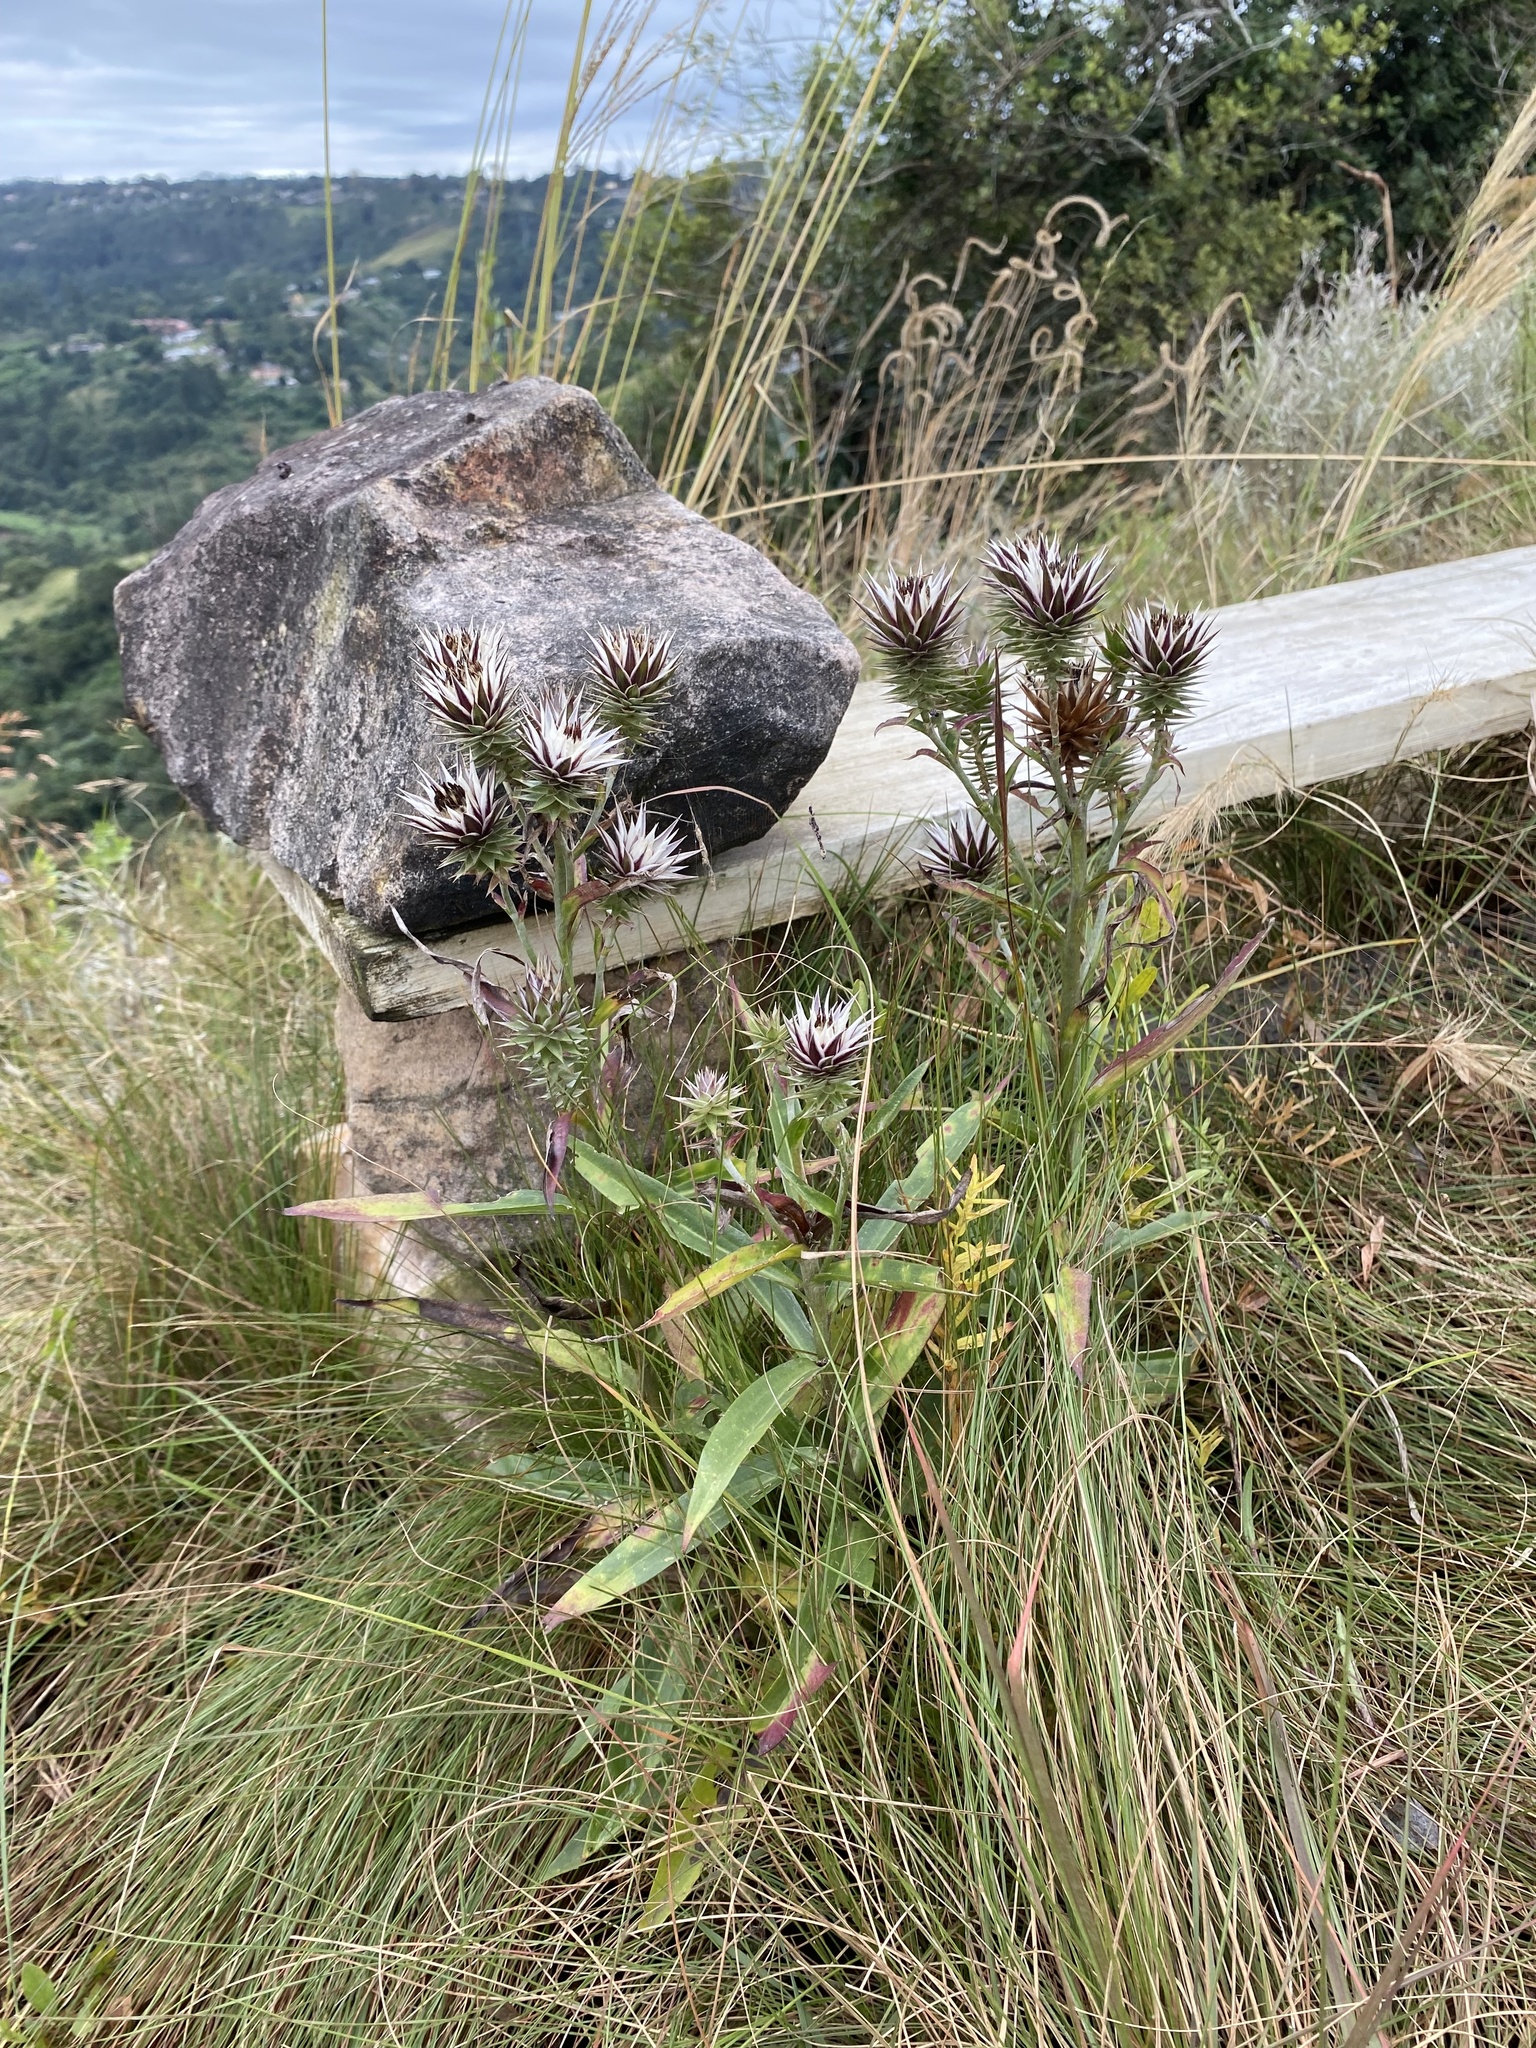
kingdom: Plantae
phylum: Tracheophyta
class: Magnoliopsida
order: Asterales
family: Asteraceae
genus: Macledium
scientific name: Macledium zeyheri
